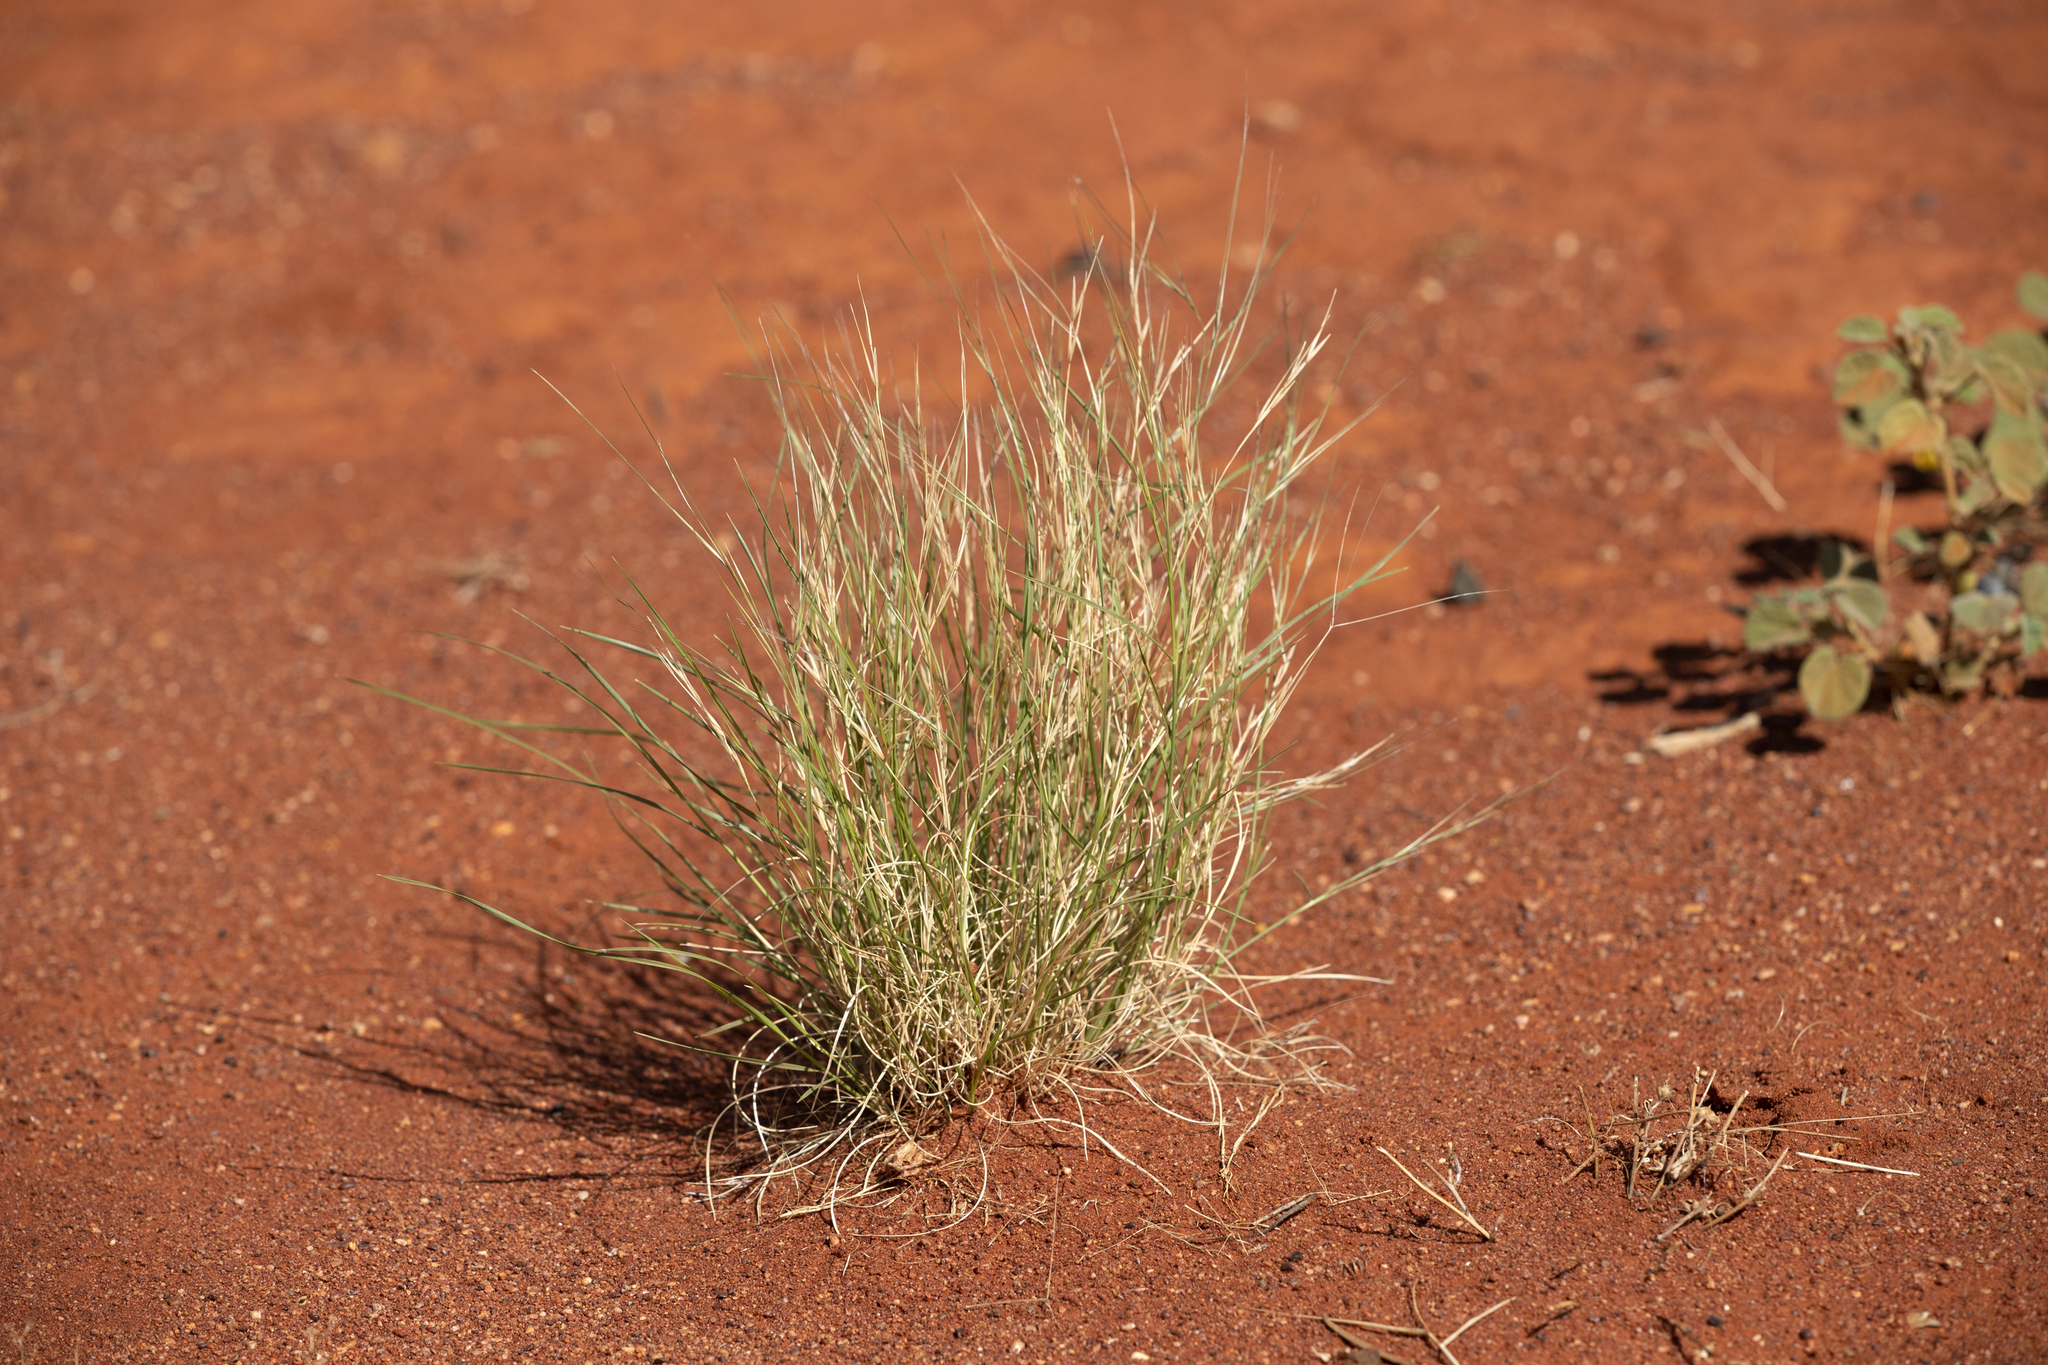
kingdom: Plantae
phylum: Tracheophyta
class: Liliopsida
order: Poales
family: Poaceae
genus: Aristida
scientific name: Aristida contorta
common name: Bunch kerosene grass
